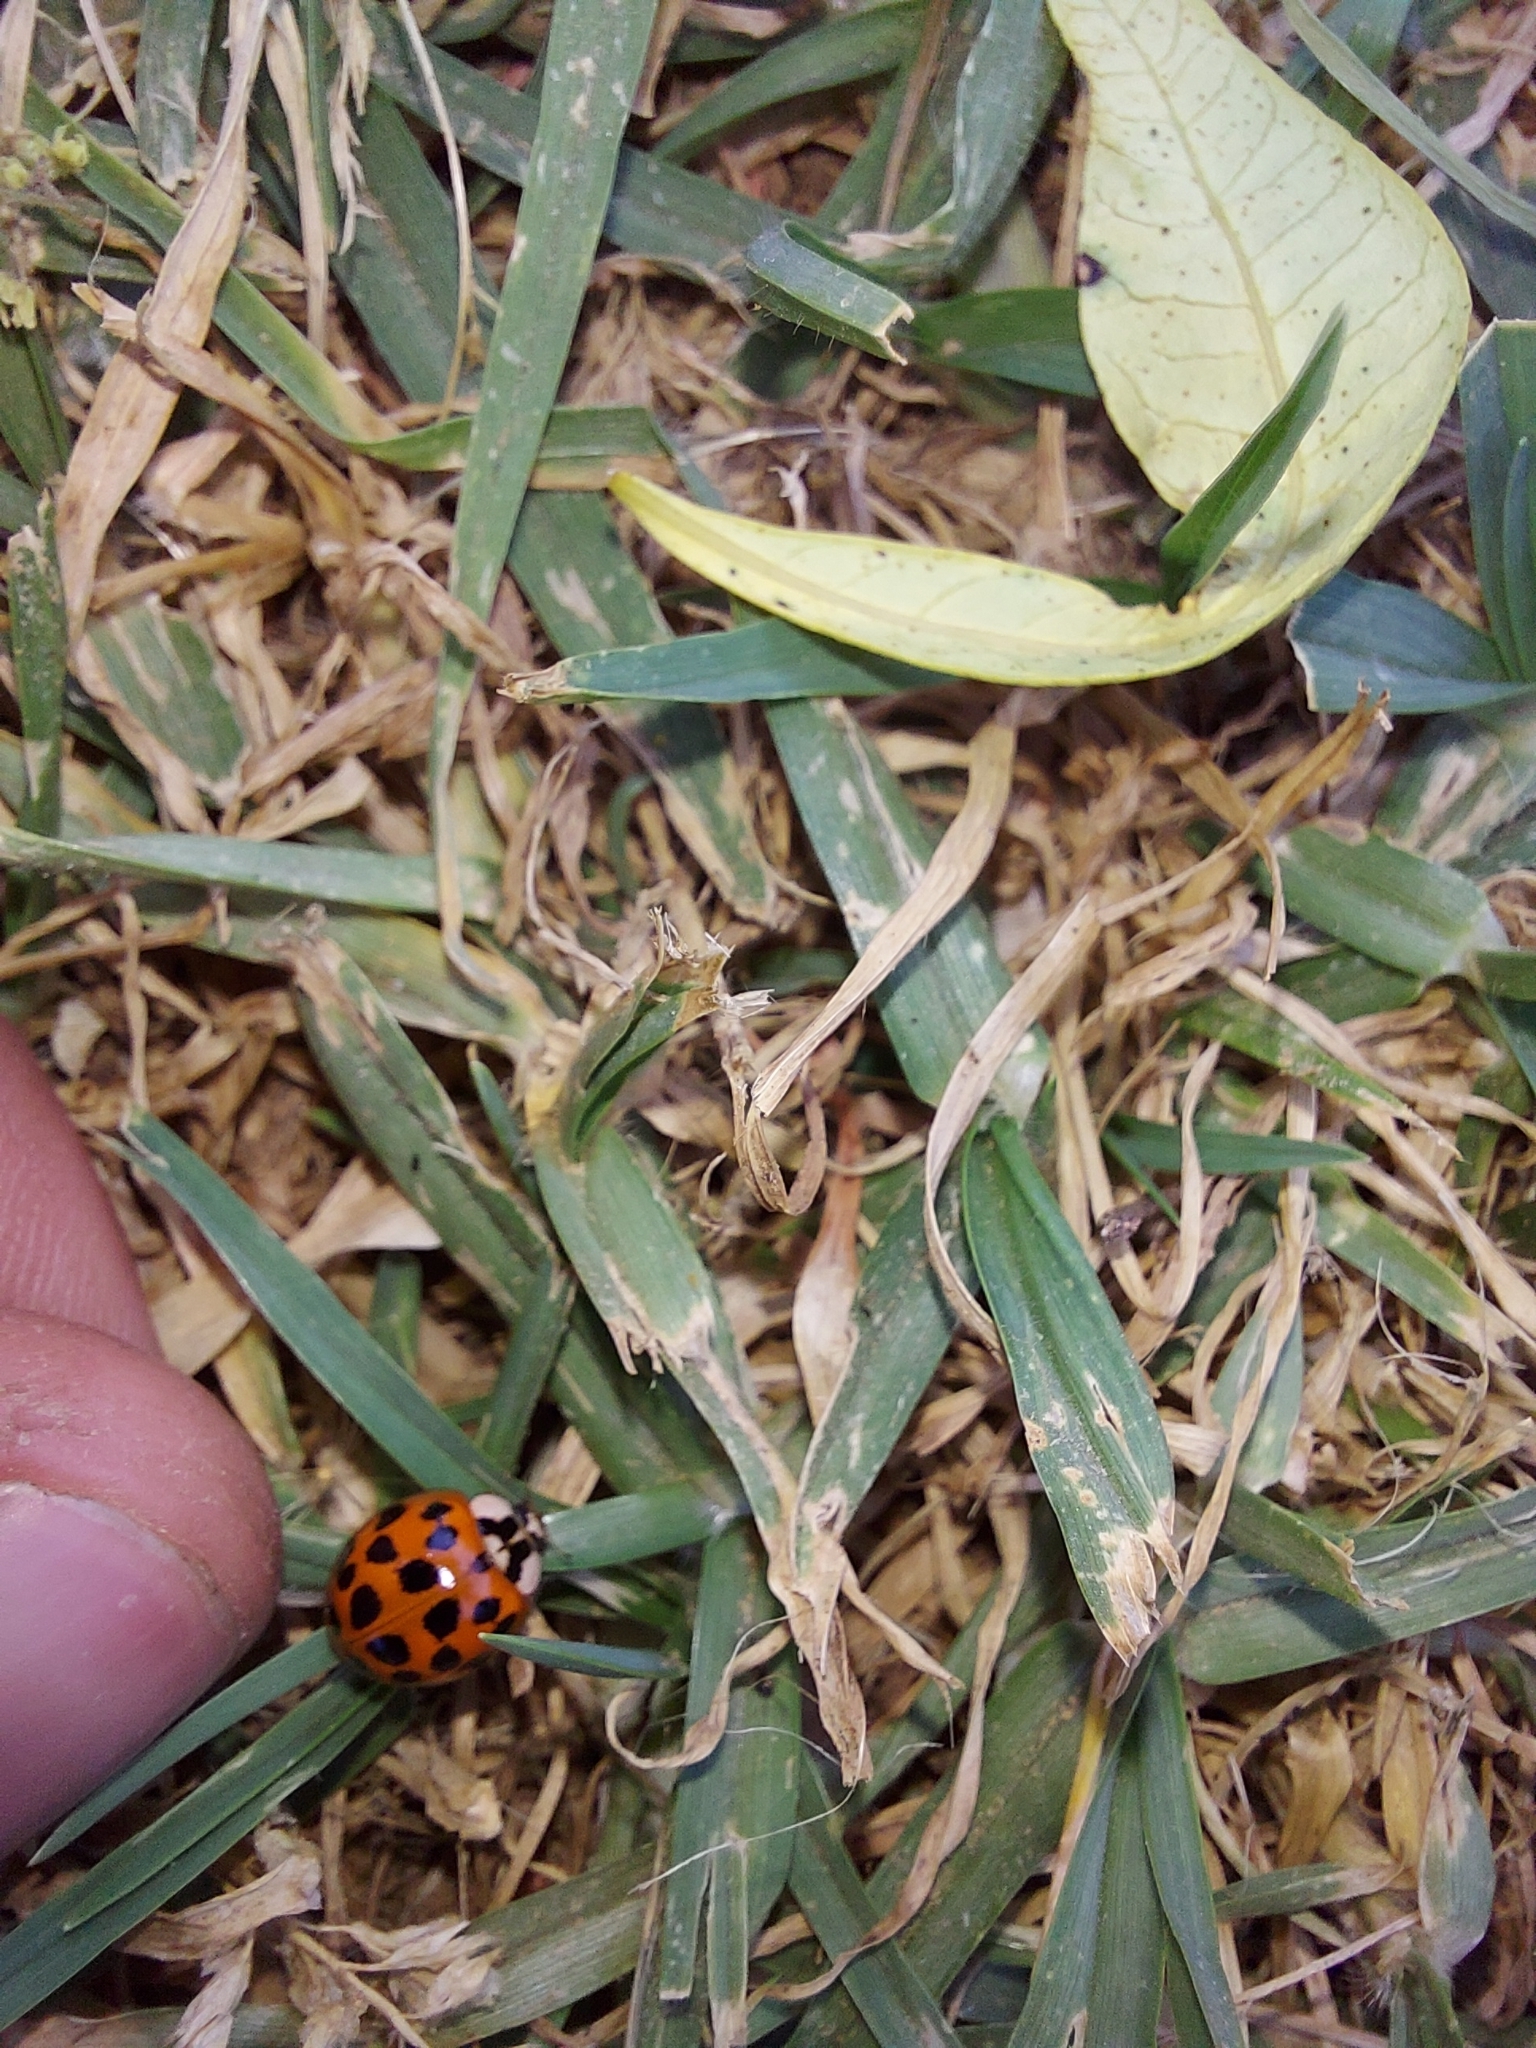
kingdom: Animalia
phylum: Arthropoda
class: Insecta
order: Coleoptera
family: Coccinellidae
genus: Harmonia
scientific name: Harmonia axyridis
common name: Harlequin ladybird
